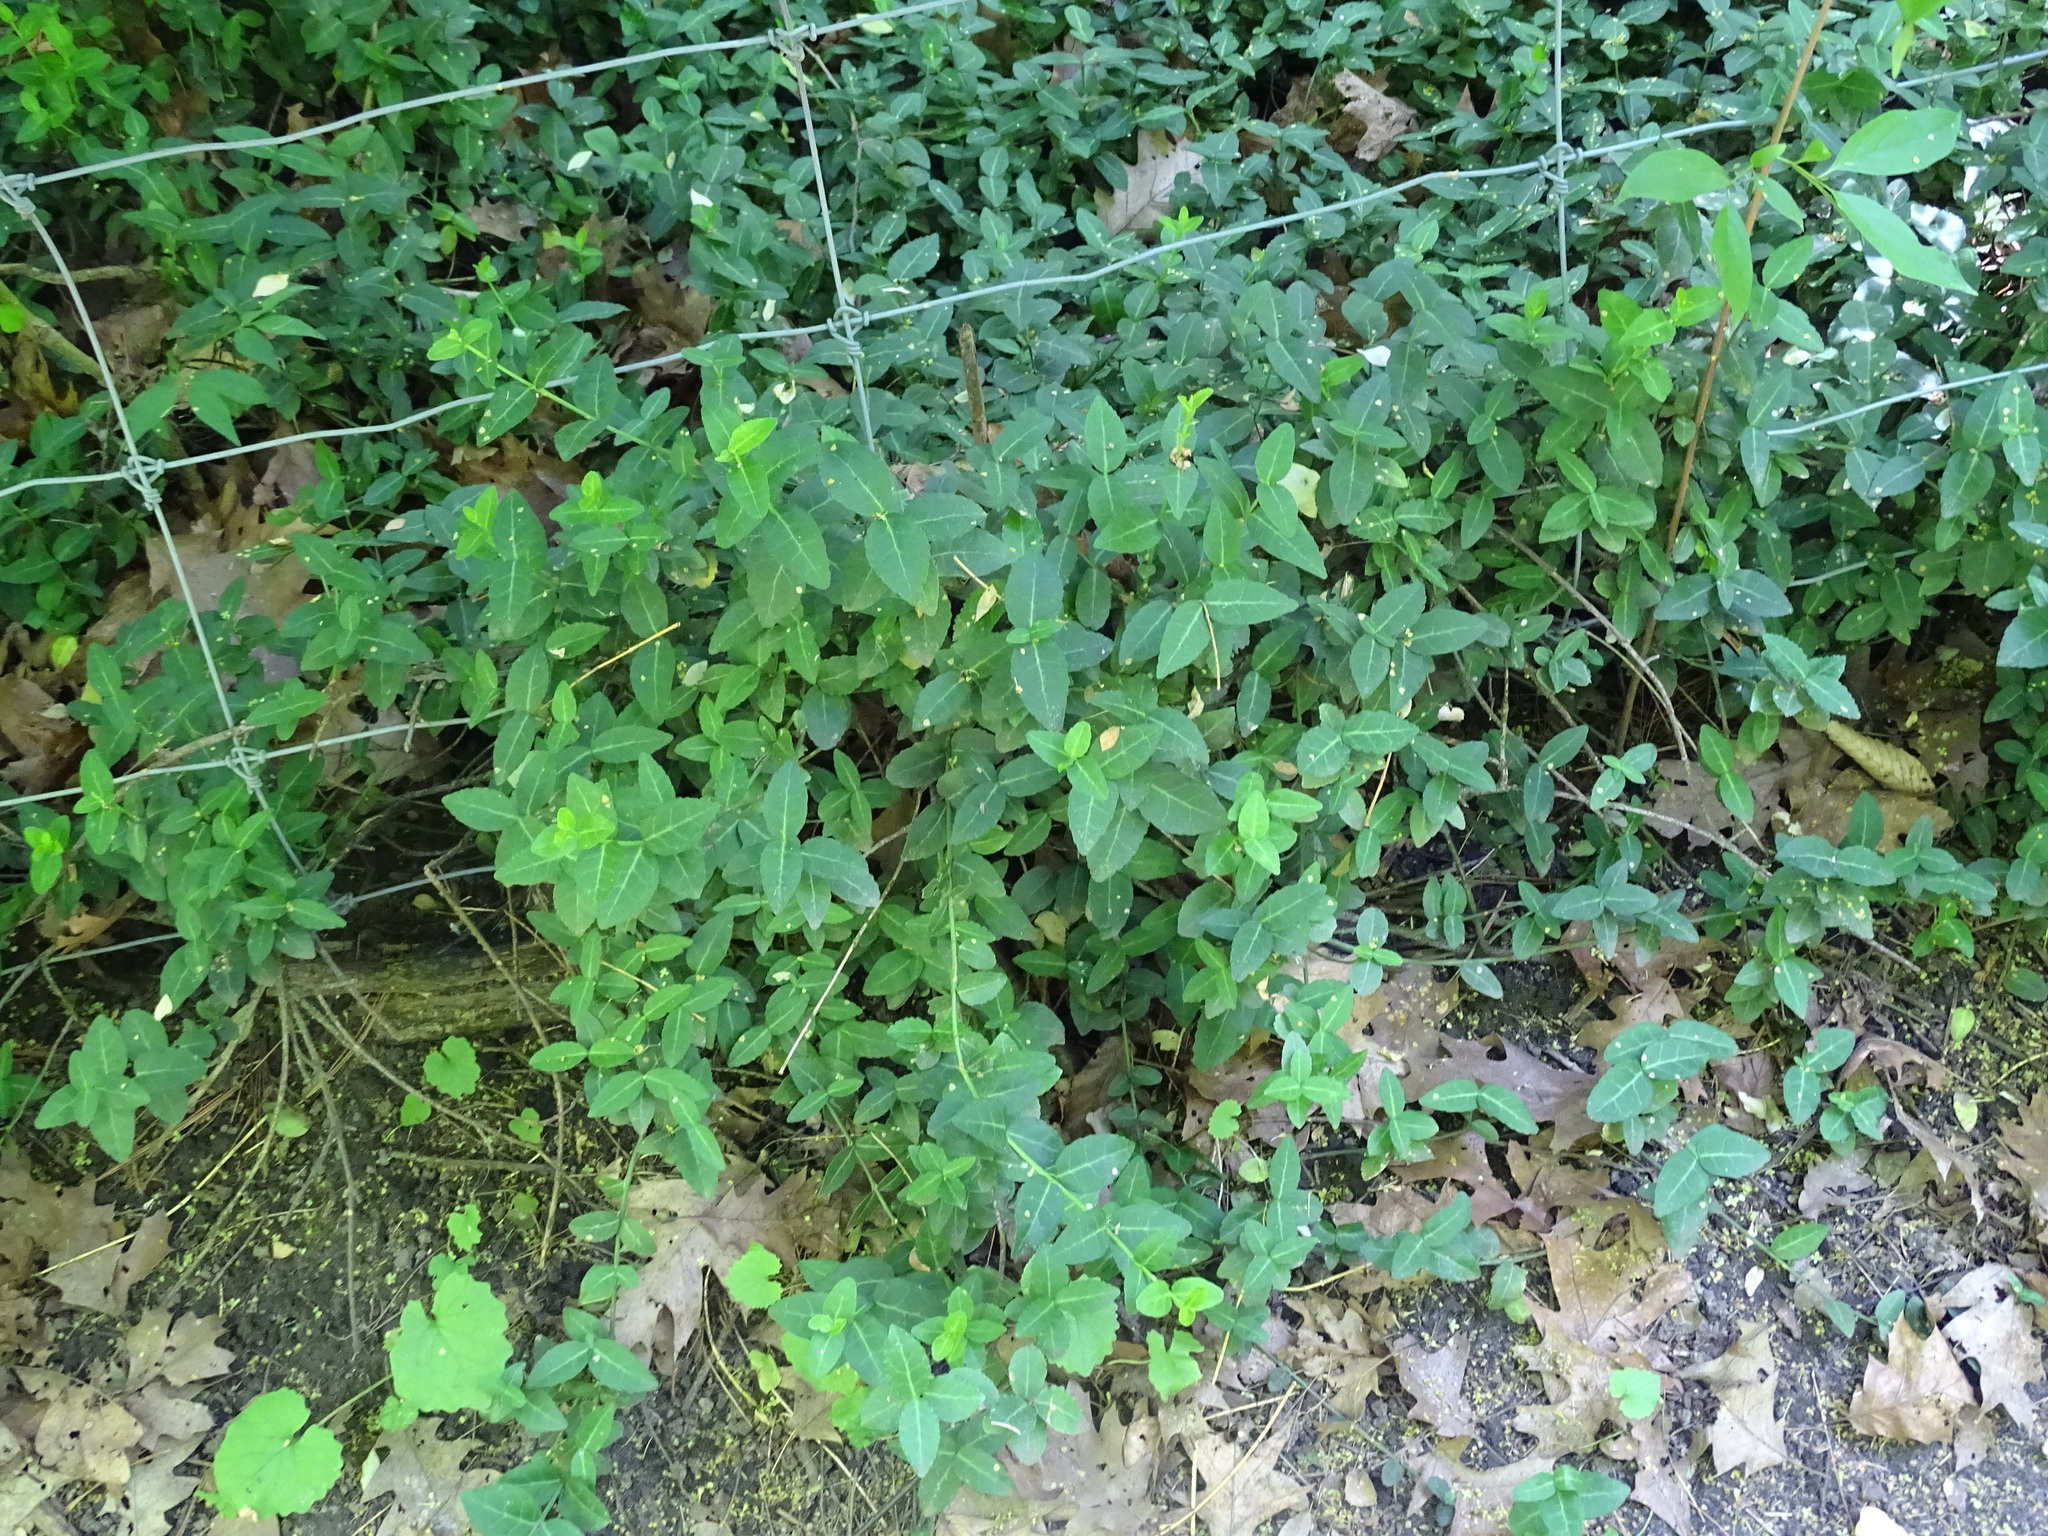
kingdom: Plantae
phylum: Tracheophyta
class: Magnoliopsida
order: Celastrales
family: Celastraceae
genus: Euonymus
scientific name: Euonymus fortunei
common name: Climbing euonymus
